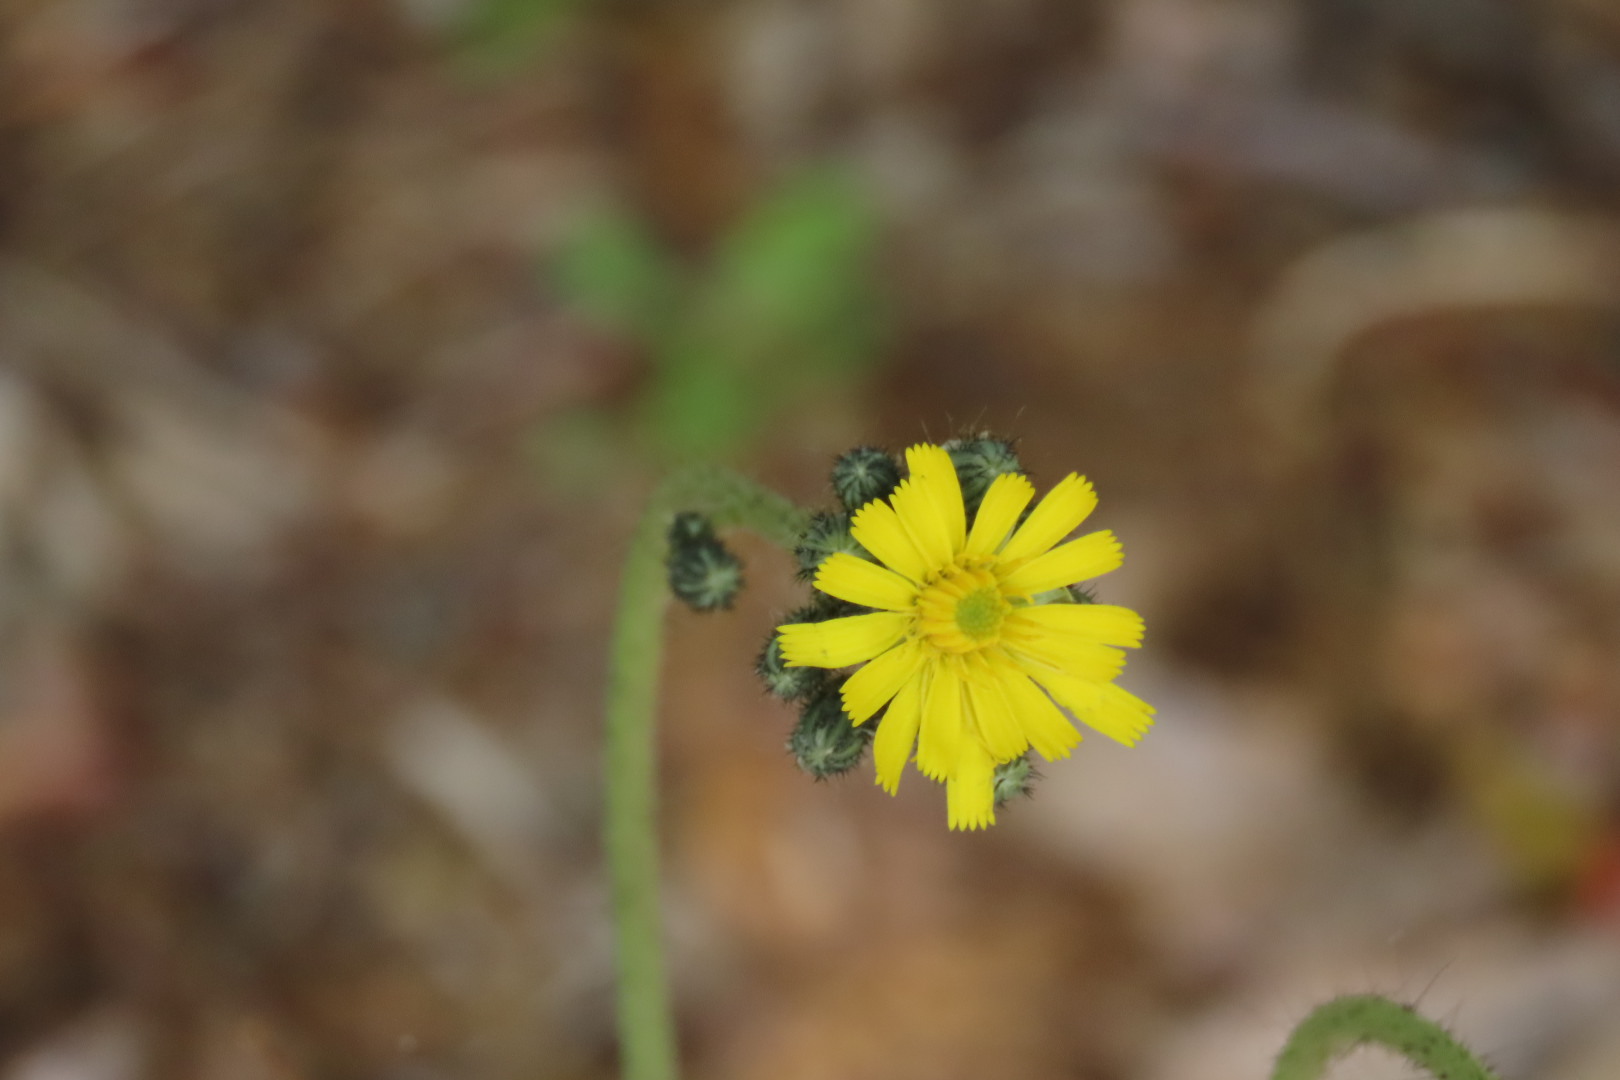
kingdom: Plantae
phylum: Tracheophyta
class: Magnoliopsida
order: Asterales
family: Asteraceae
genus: Hieracium
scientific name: Hieracium lachenalii
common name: Common hawkweed
